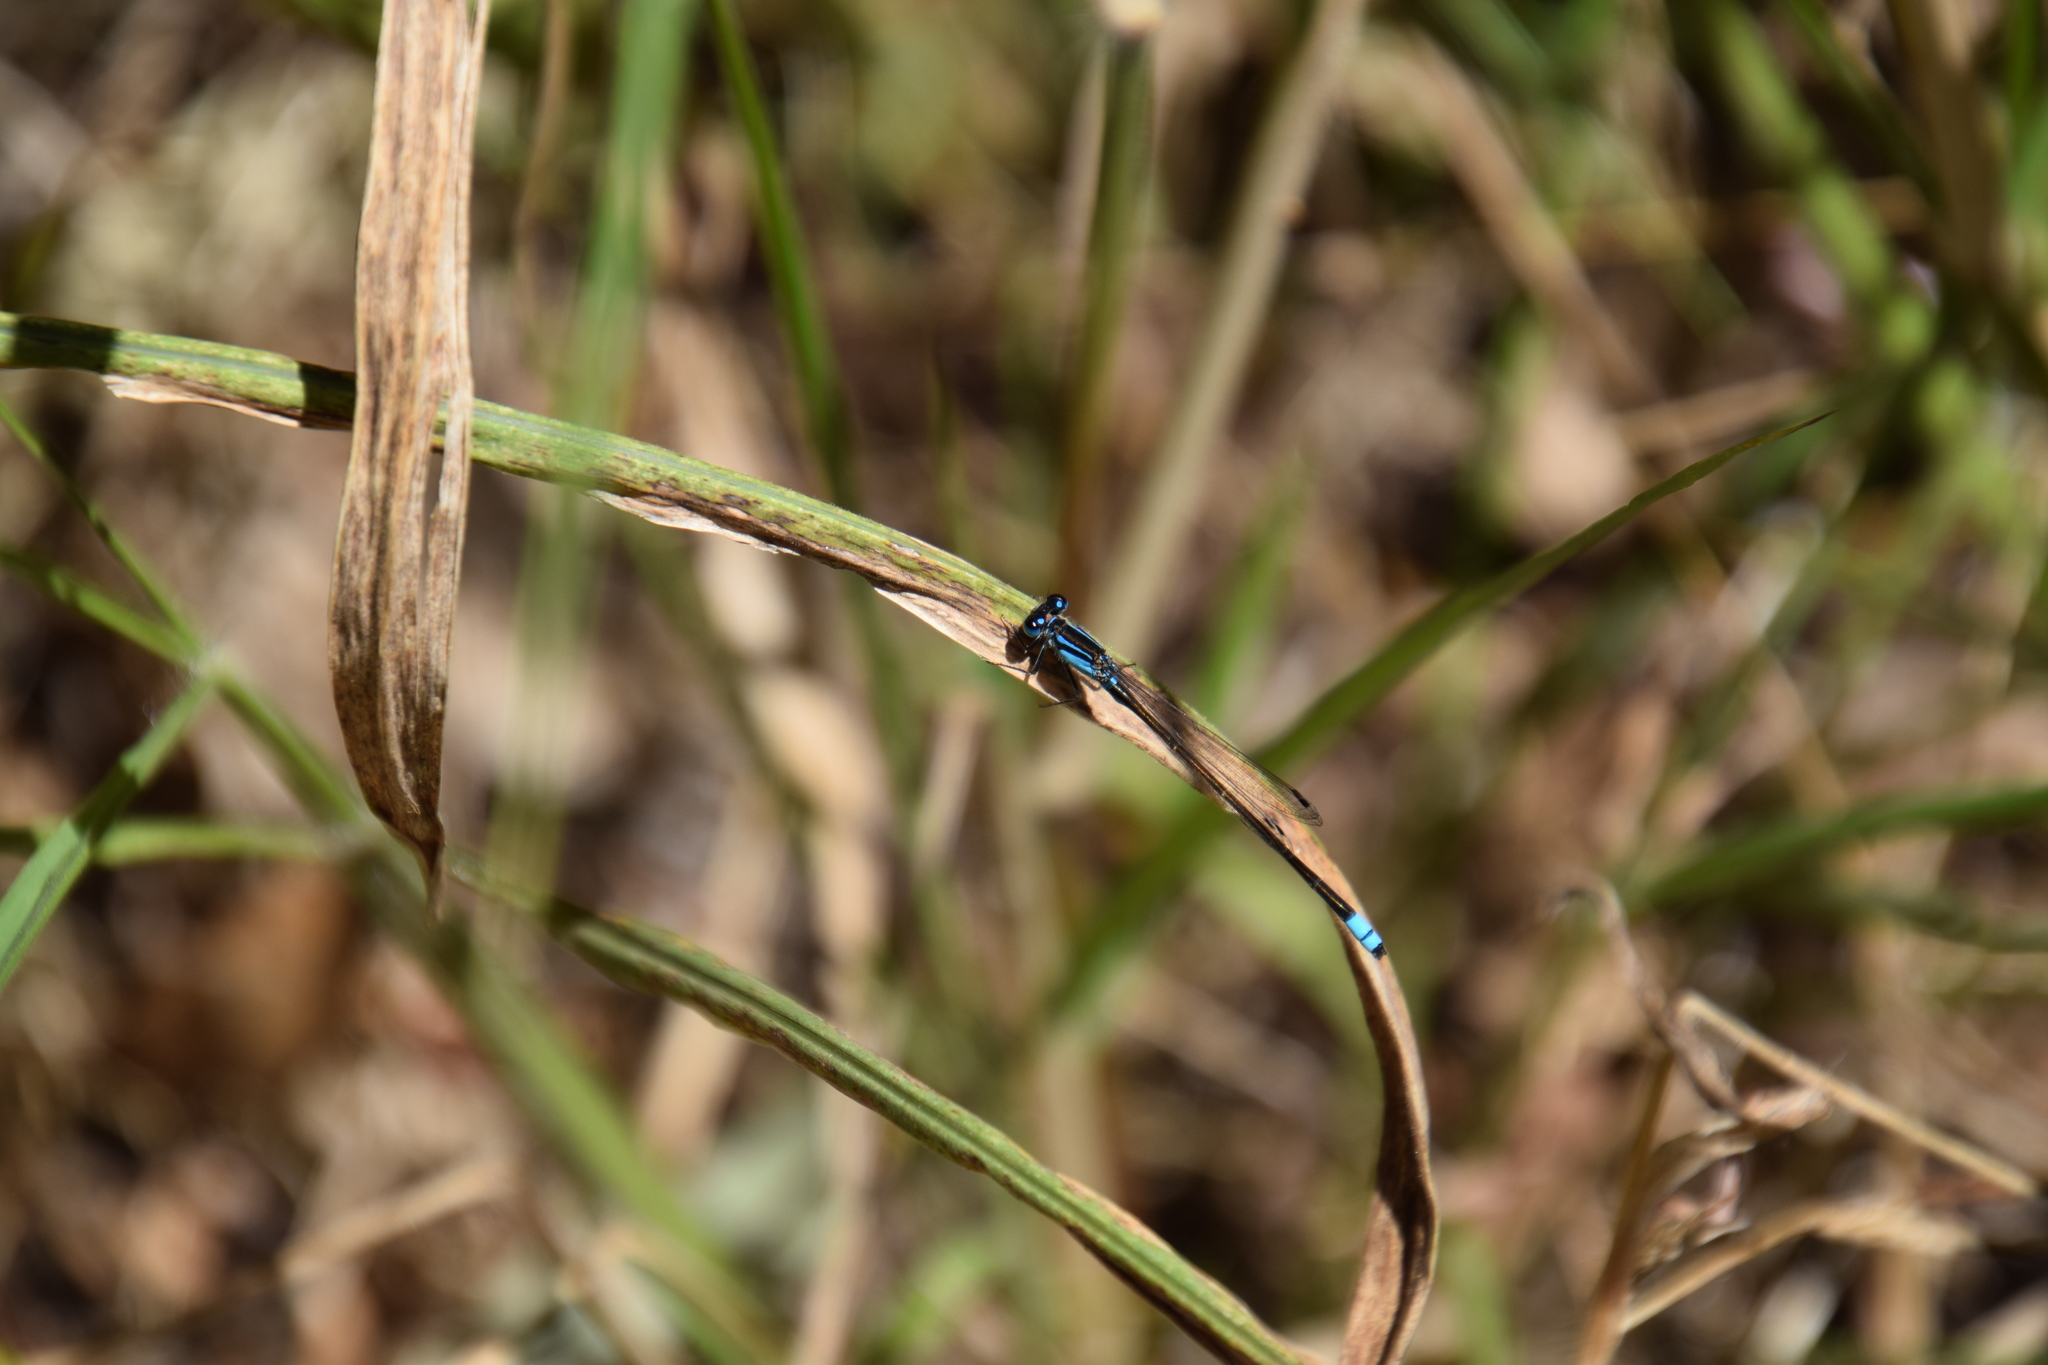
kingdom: Animalia
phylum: Arthropoda
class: Insecta
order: Odonata
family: Coenagrionidae
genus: Ischnura
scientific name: Ischnura heterosticta
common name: Common bluetail
